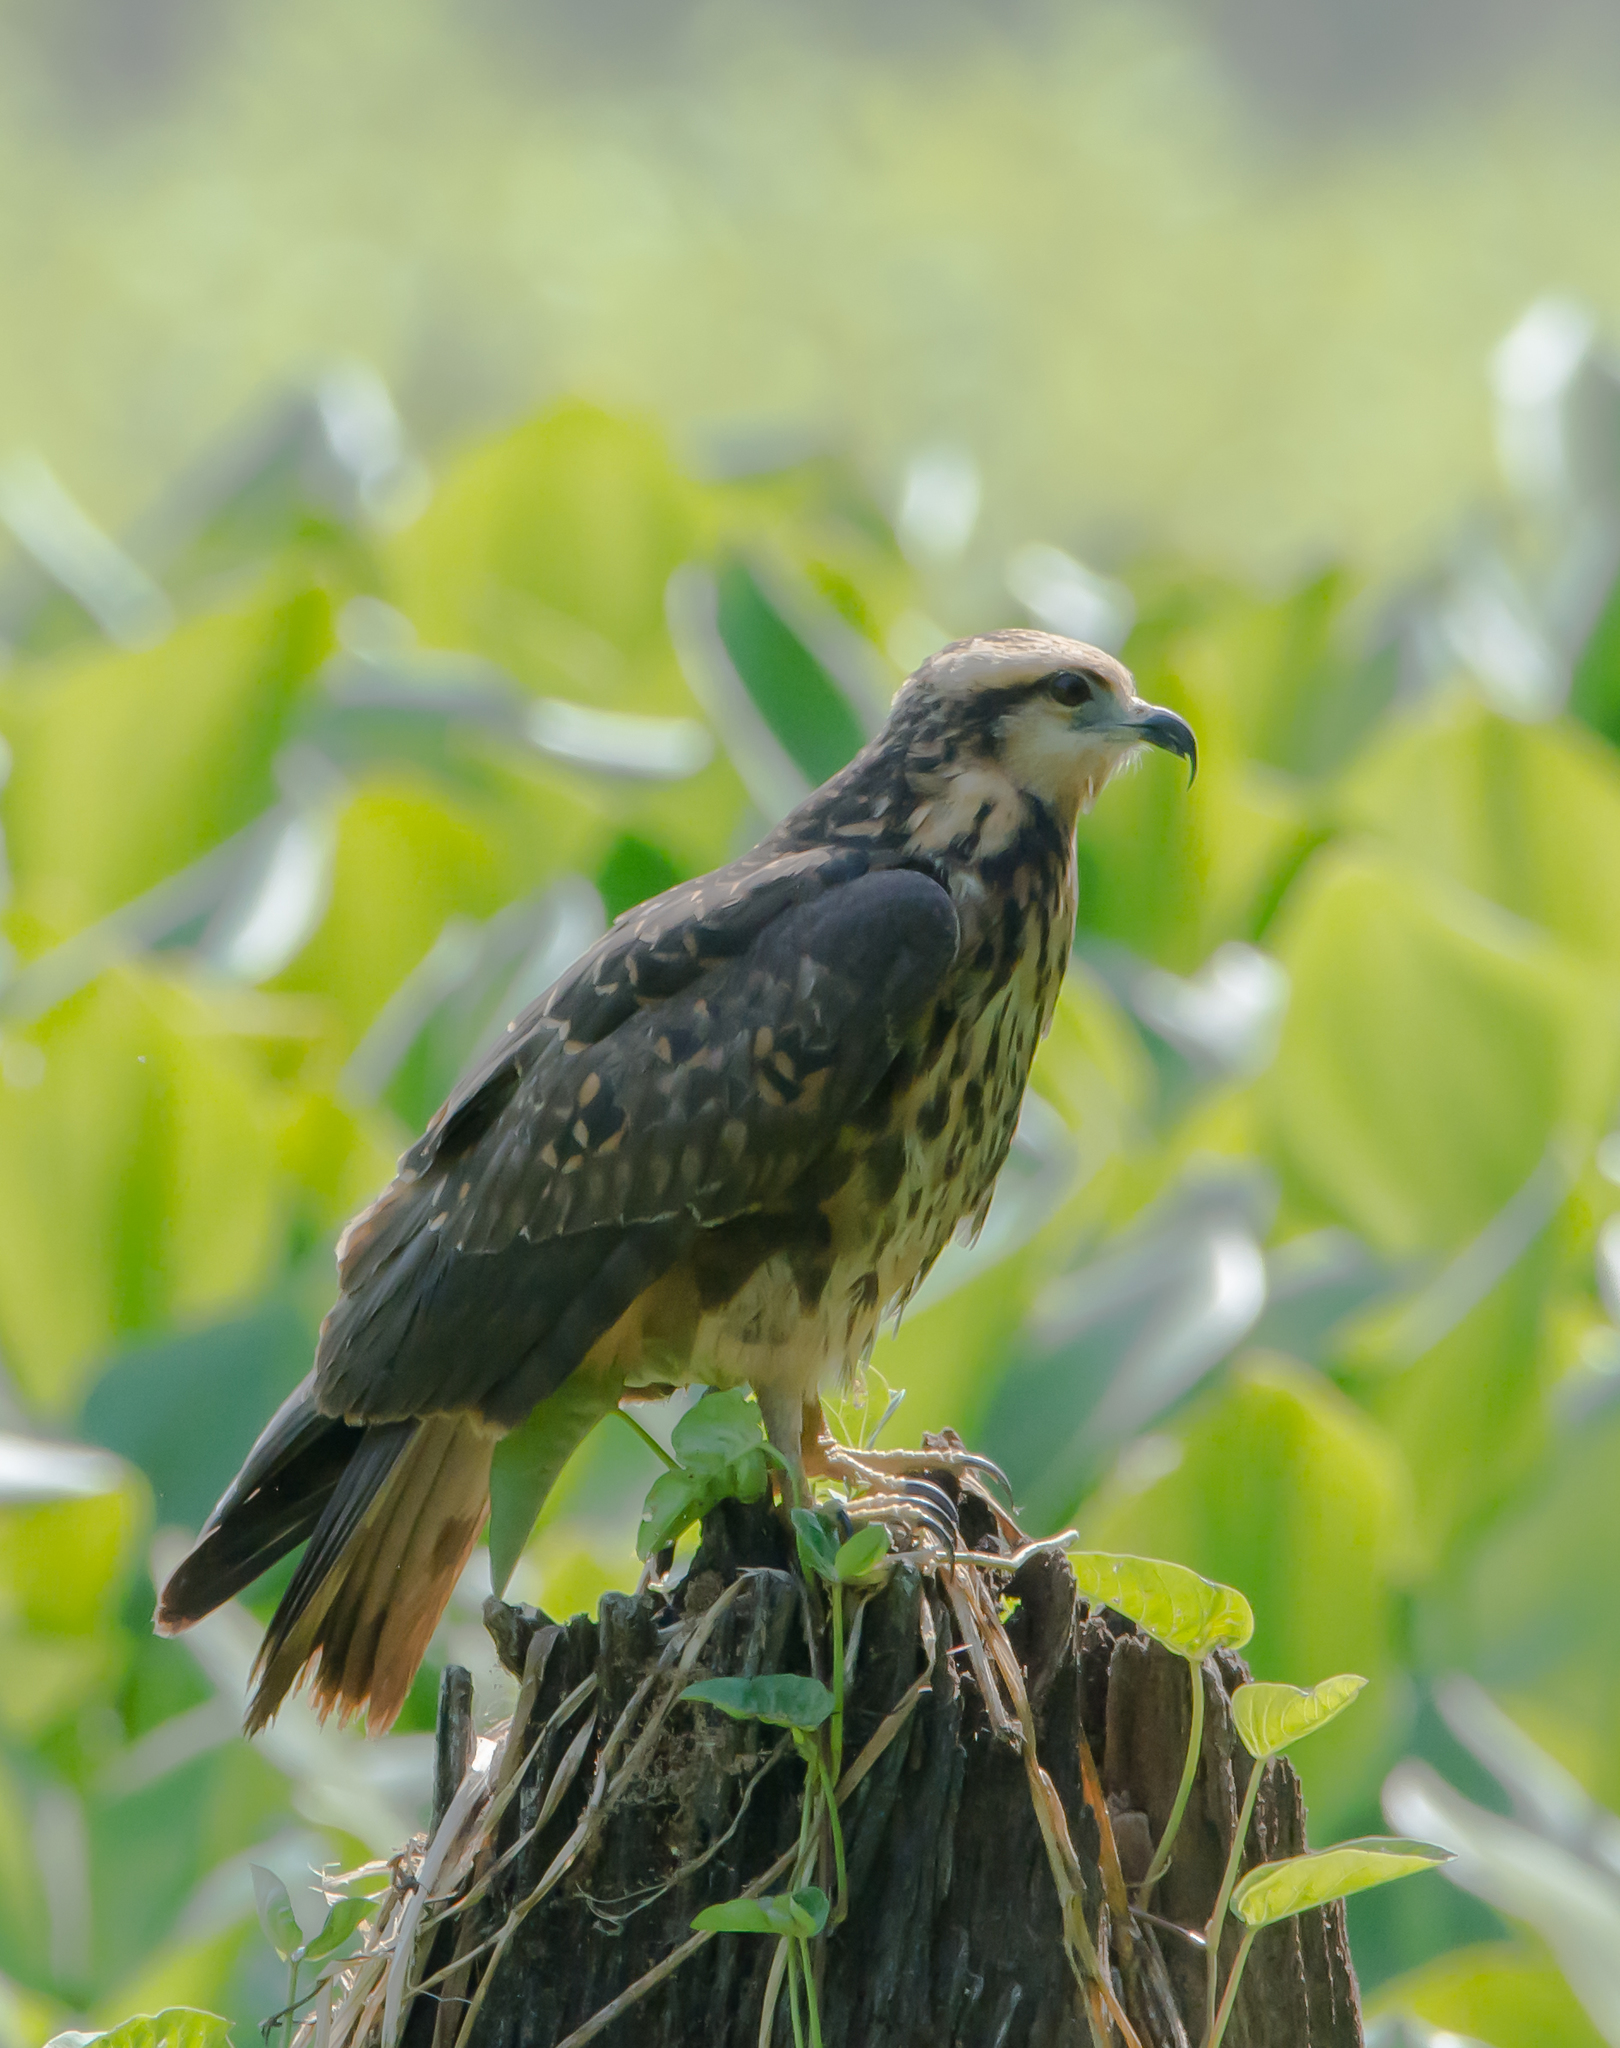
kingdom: Animalia
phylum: Chordata
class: Aves
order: Accipitriformes
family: Accipitridae
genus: Rostrhamus
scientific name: Rostrhamus sociabilis
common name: Snail kite
